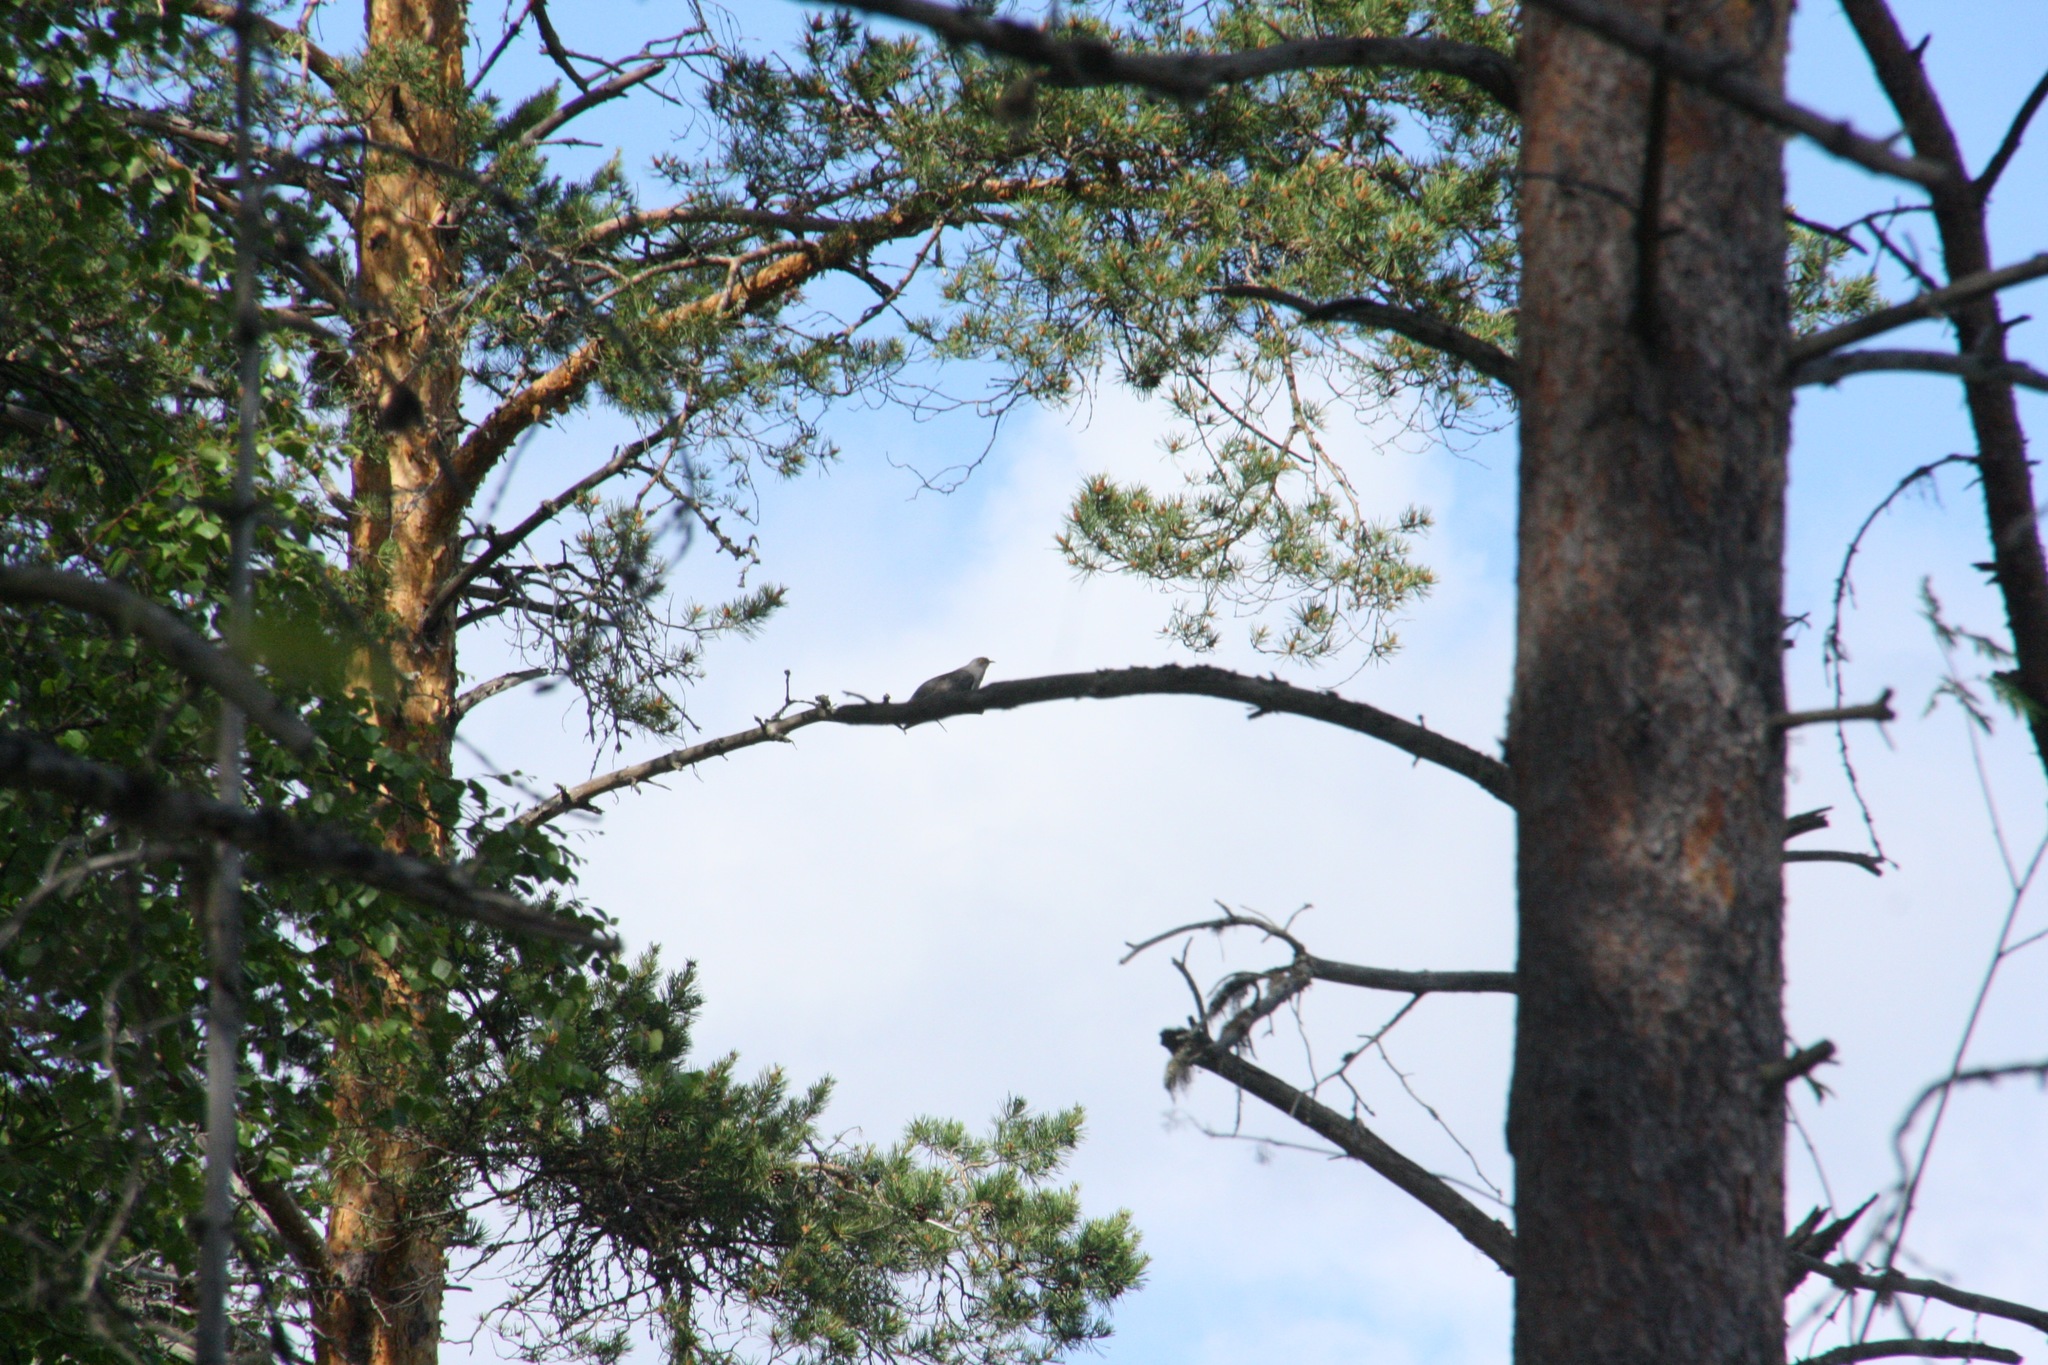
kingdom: Animalia
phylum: Chordata
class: Aves
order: Cuculiformes
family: Cuculidae
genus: Cuculus
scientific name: Cuculus canorus
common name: Common cuckoo
